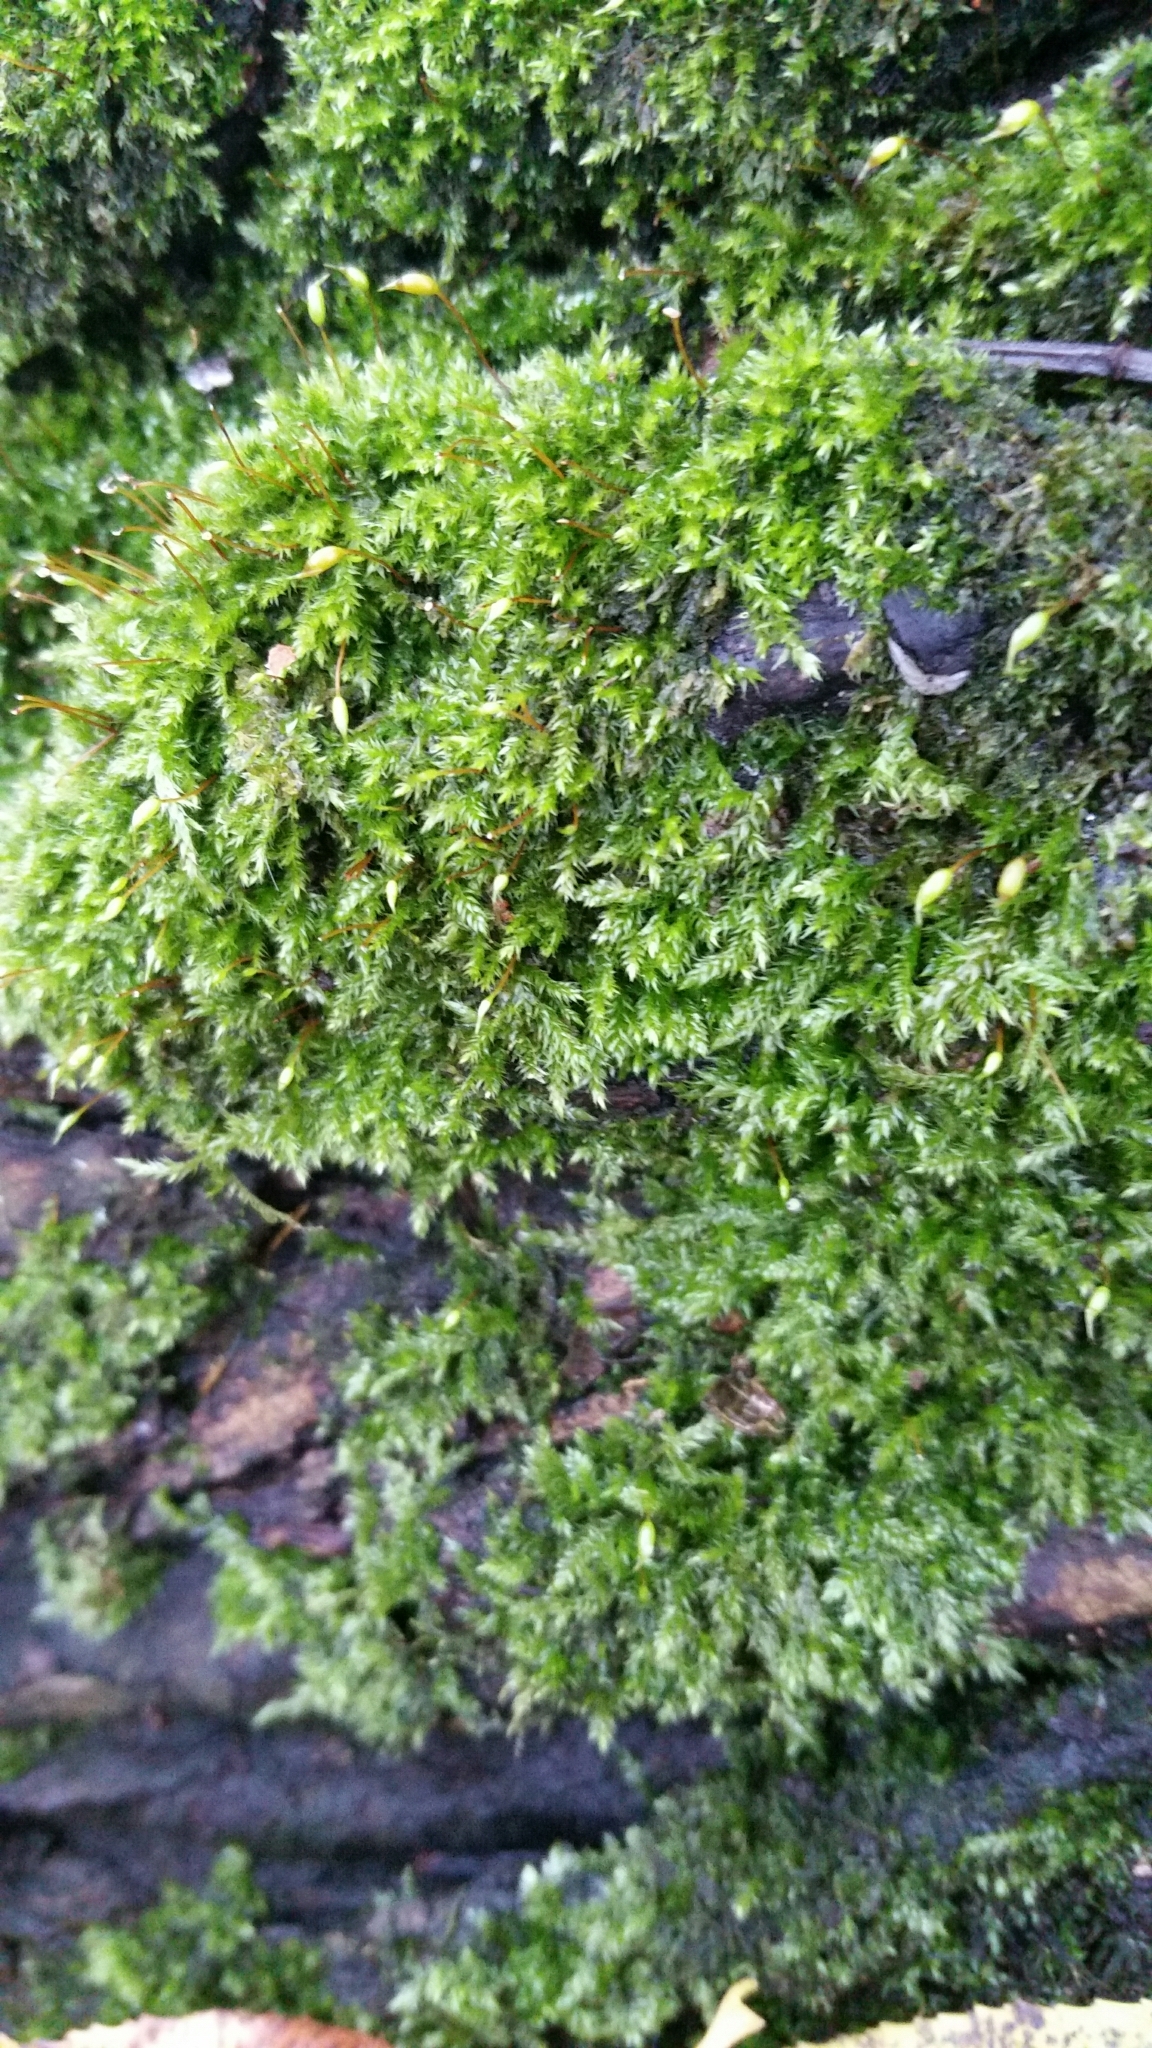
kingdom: Plantae
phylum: Bryophyta
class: Bryopsida
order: Hypnales
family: Brachytheciaceae
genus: Rhynchostegium
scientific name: Rhynchostegium confertum
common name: Clustered feather-moss
